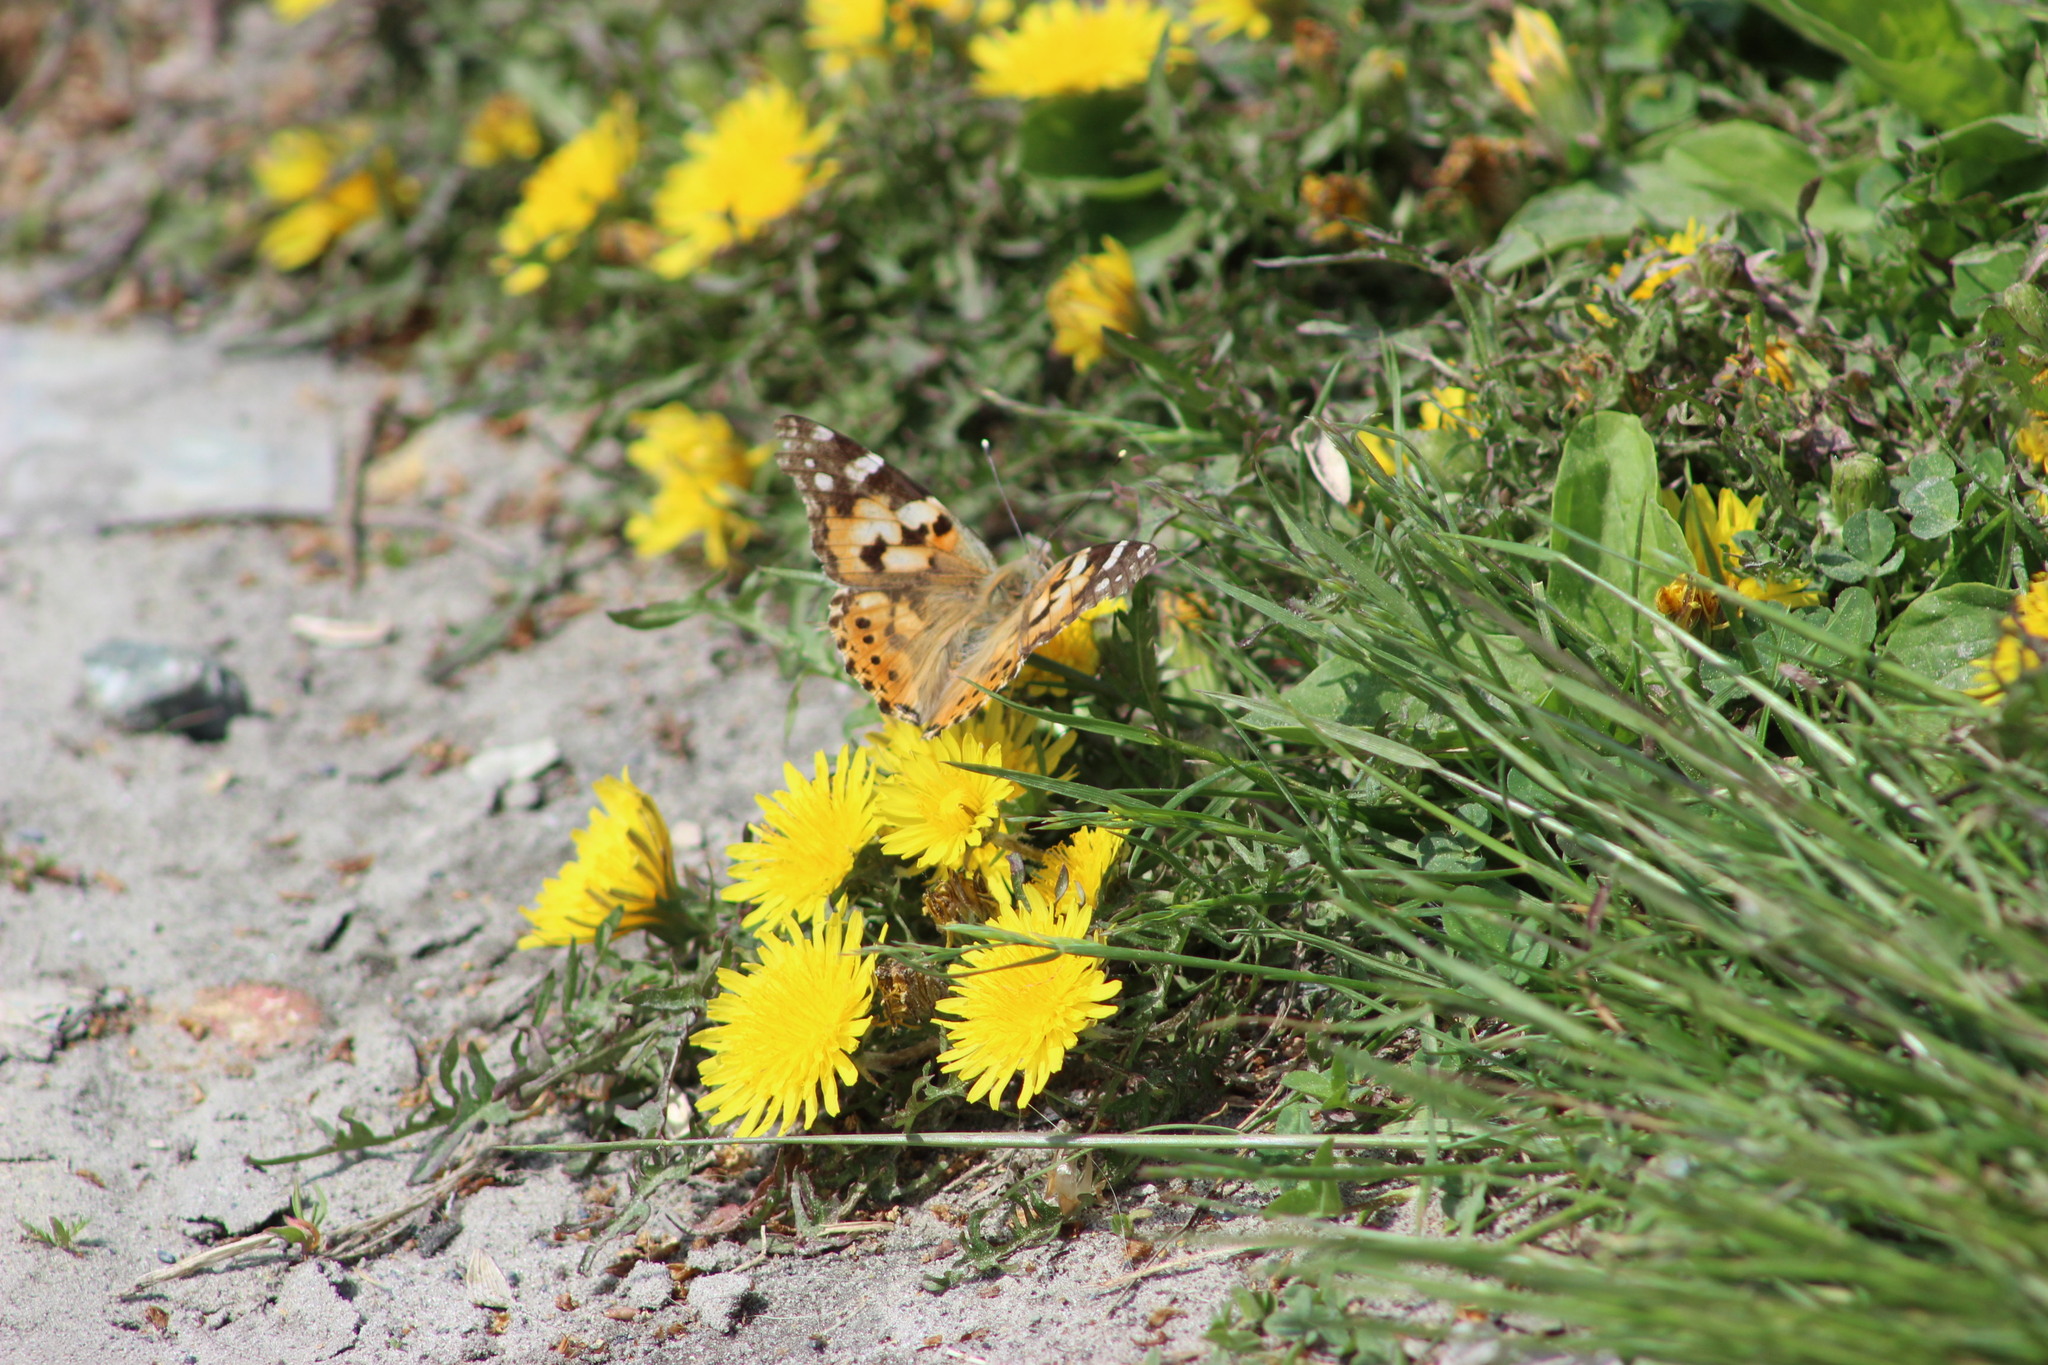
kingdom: Animalia
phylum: Arthropoda
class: Insecta
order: Lepidoptera
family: Nymphalidae
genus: Vanessa
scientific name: Vanessa cardui
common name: Painted lady
